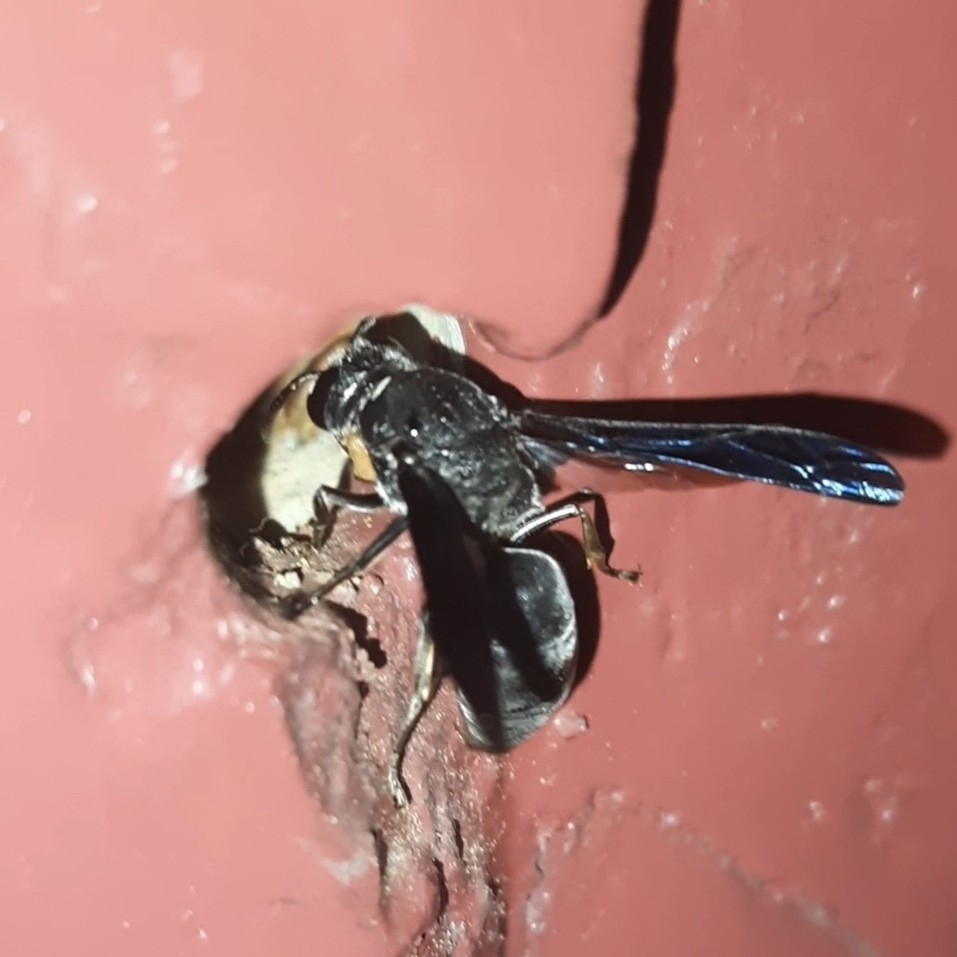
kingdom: Animalia
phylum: Arthropoda
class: Insecta
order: Hymenoptera
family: Eumenidae
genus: Anterhynchium
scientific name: Anterhynchium flavomarginatum
